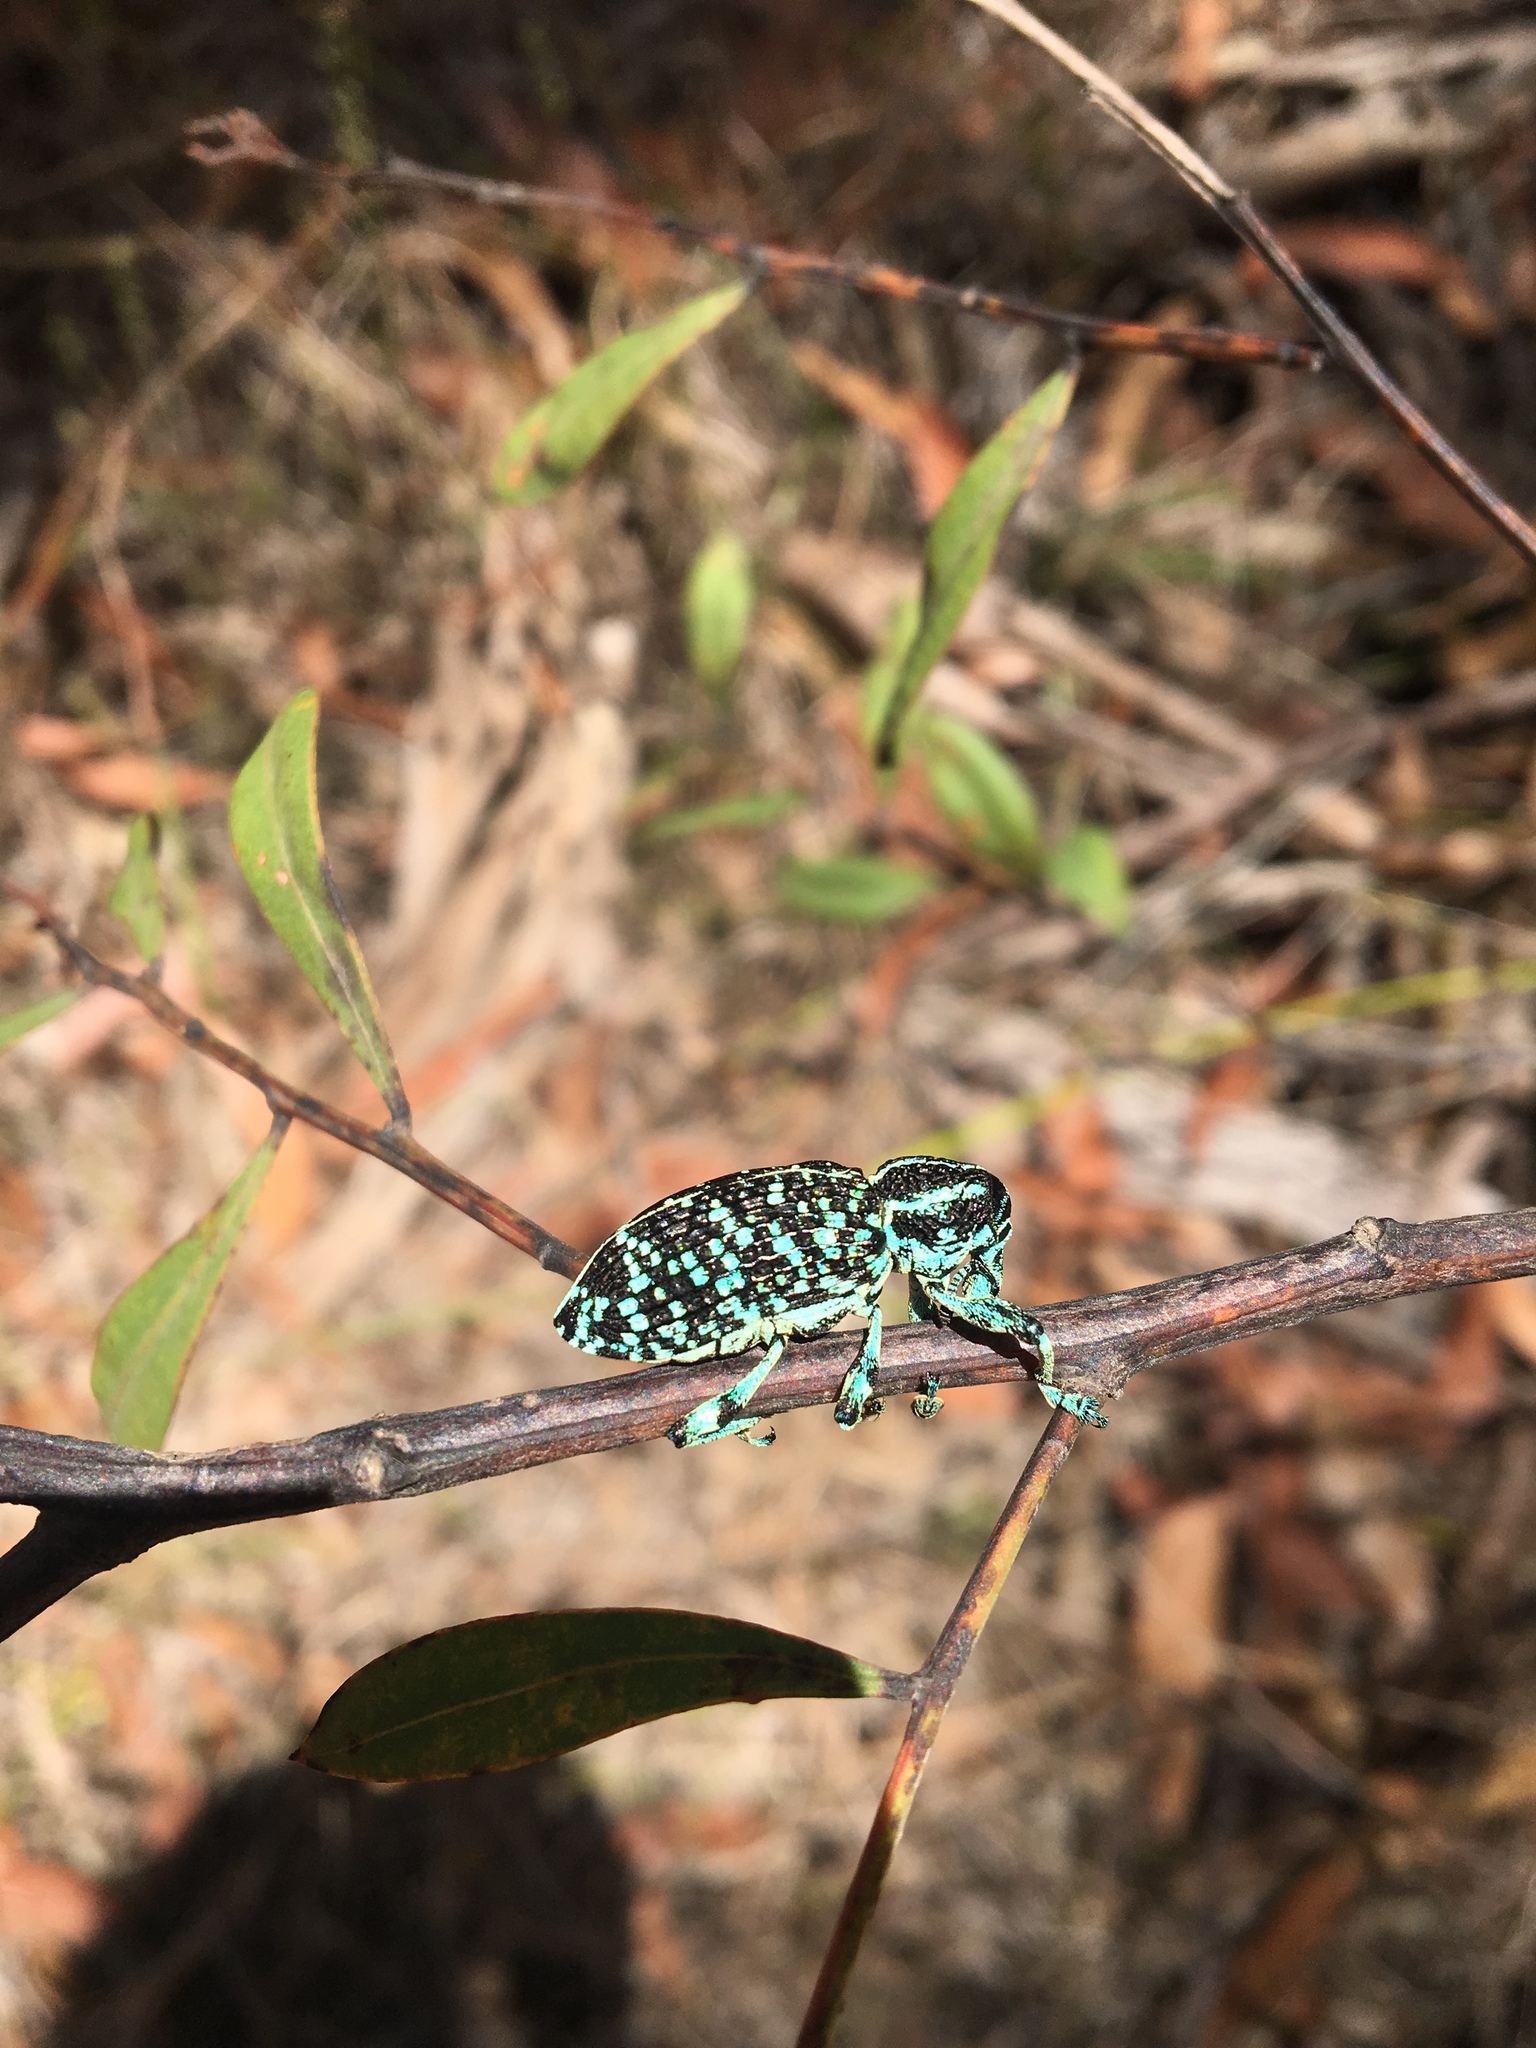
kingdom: Animalia
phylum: Arthropoda
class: Insecta
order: Coleoptera
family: Curculionidae
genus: Chrysolopus
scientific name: Chrysolopus spectabilis
